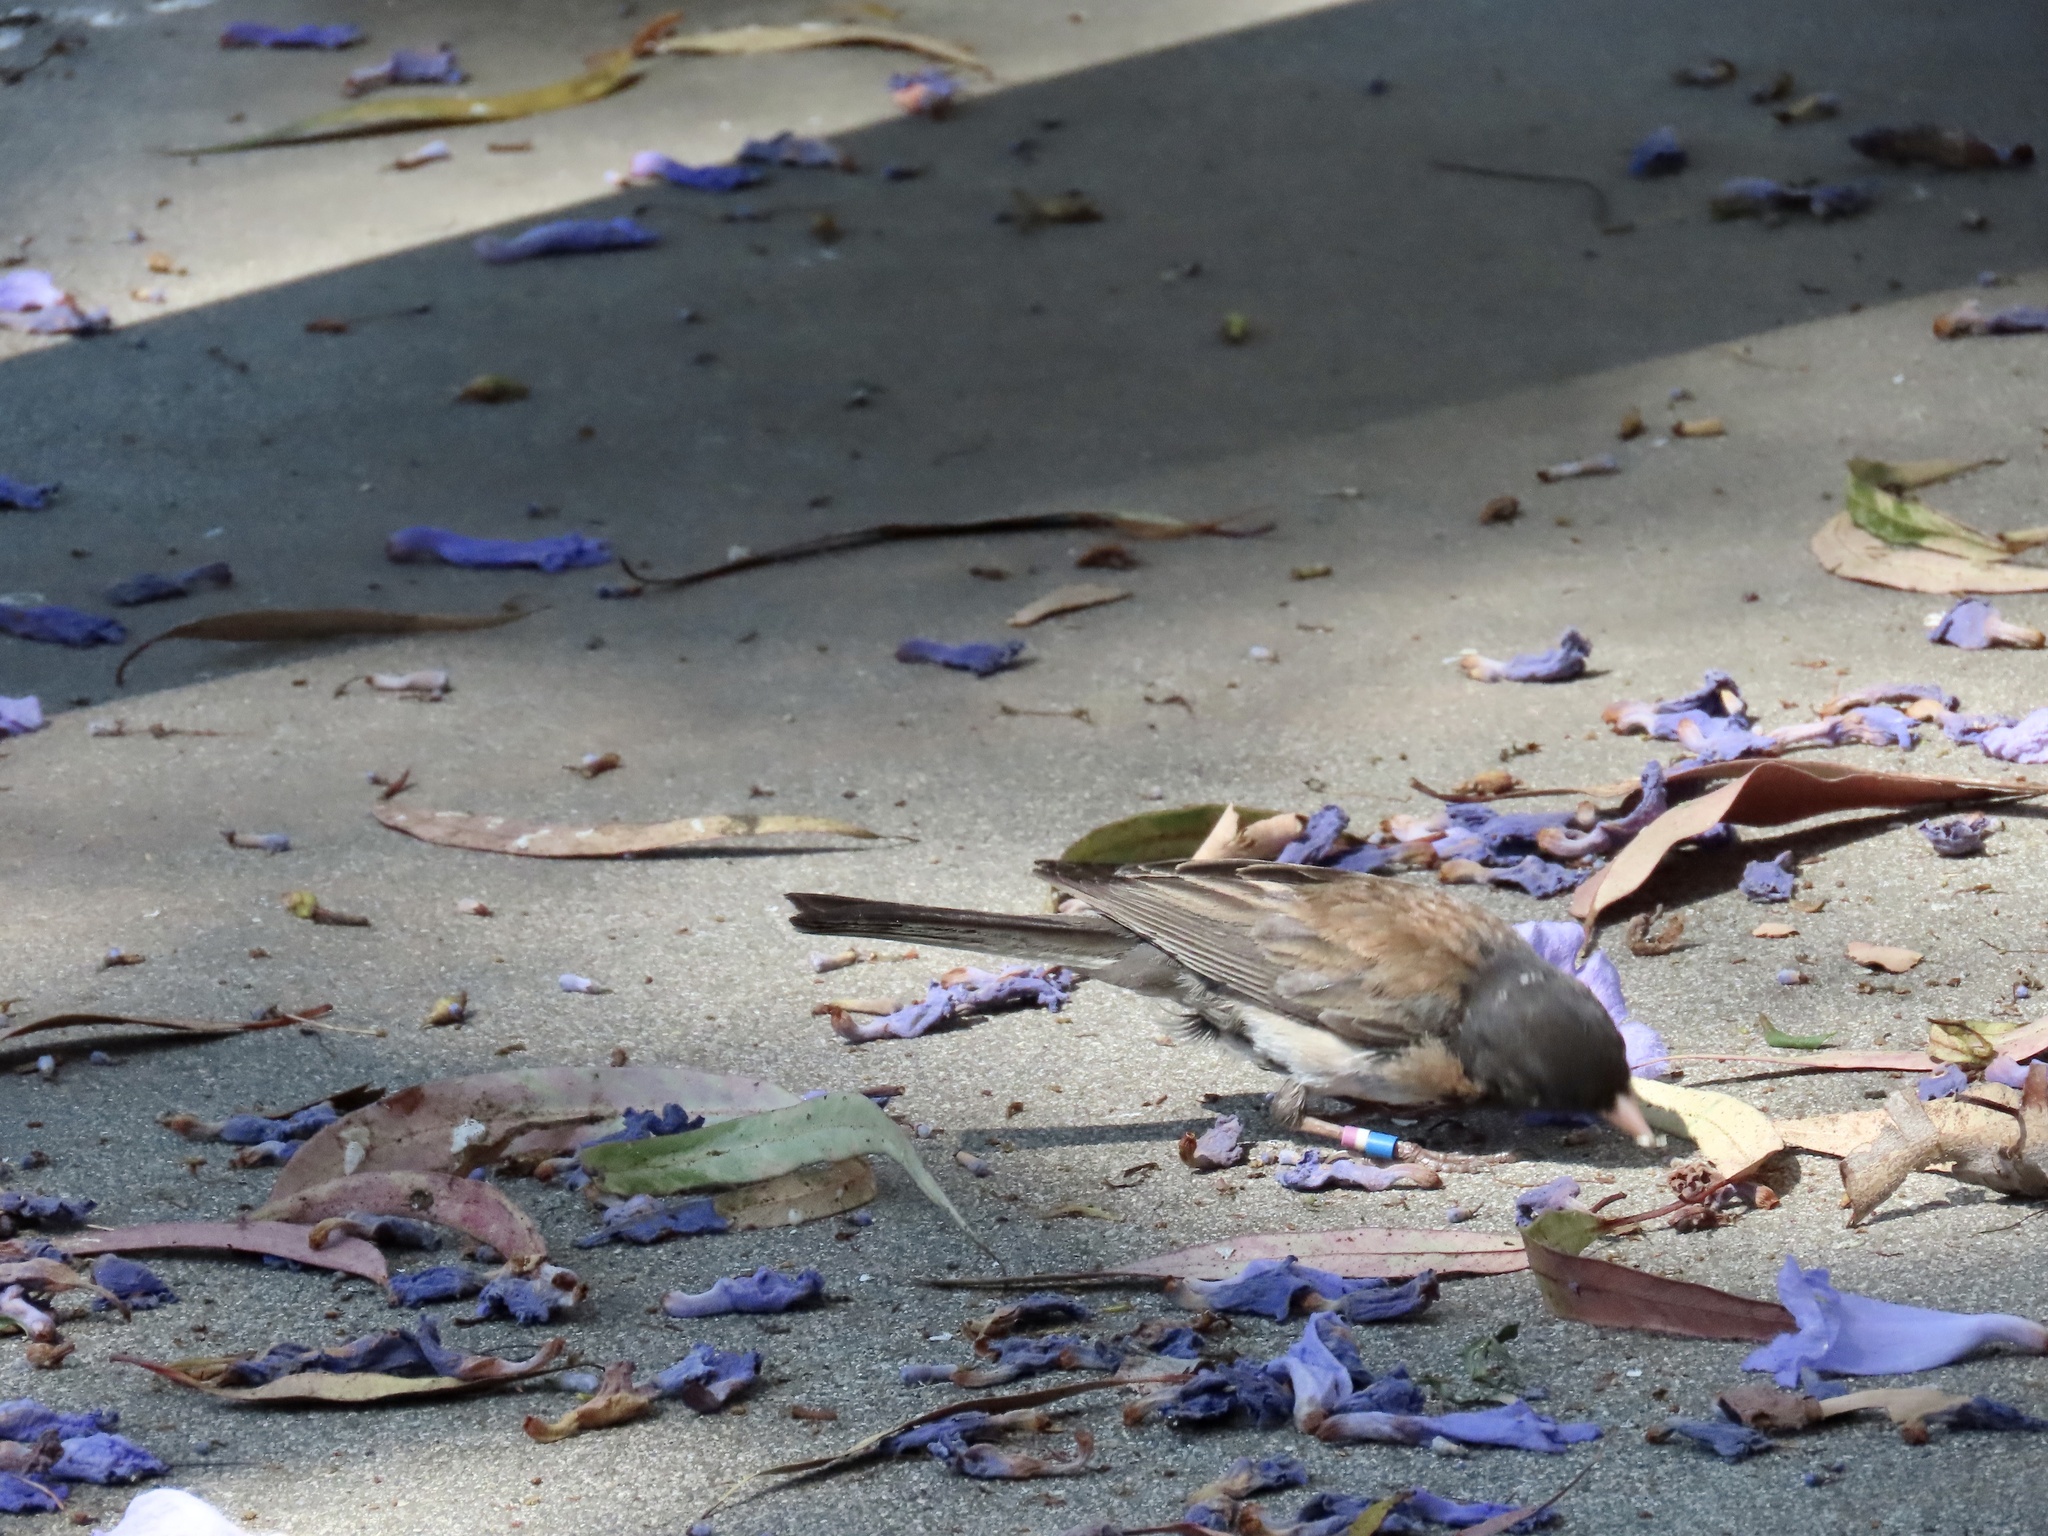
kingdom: Animalia
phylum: Chordata
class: Aves
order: Passeriformes
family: Passerellidae
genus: Junco
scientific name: Junco hyemalis
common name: Dark-eyed junco
